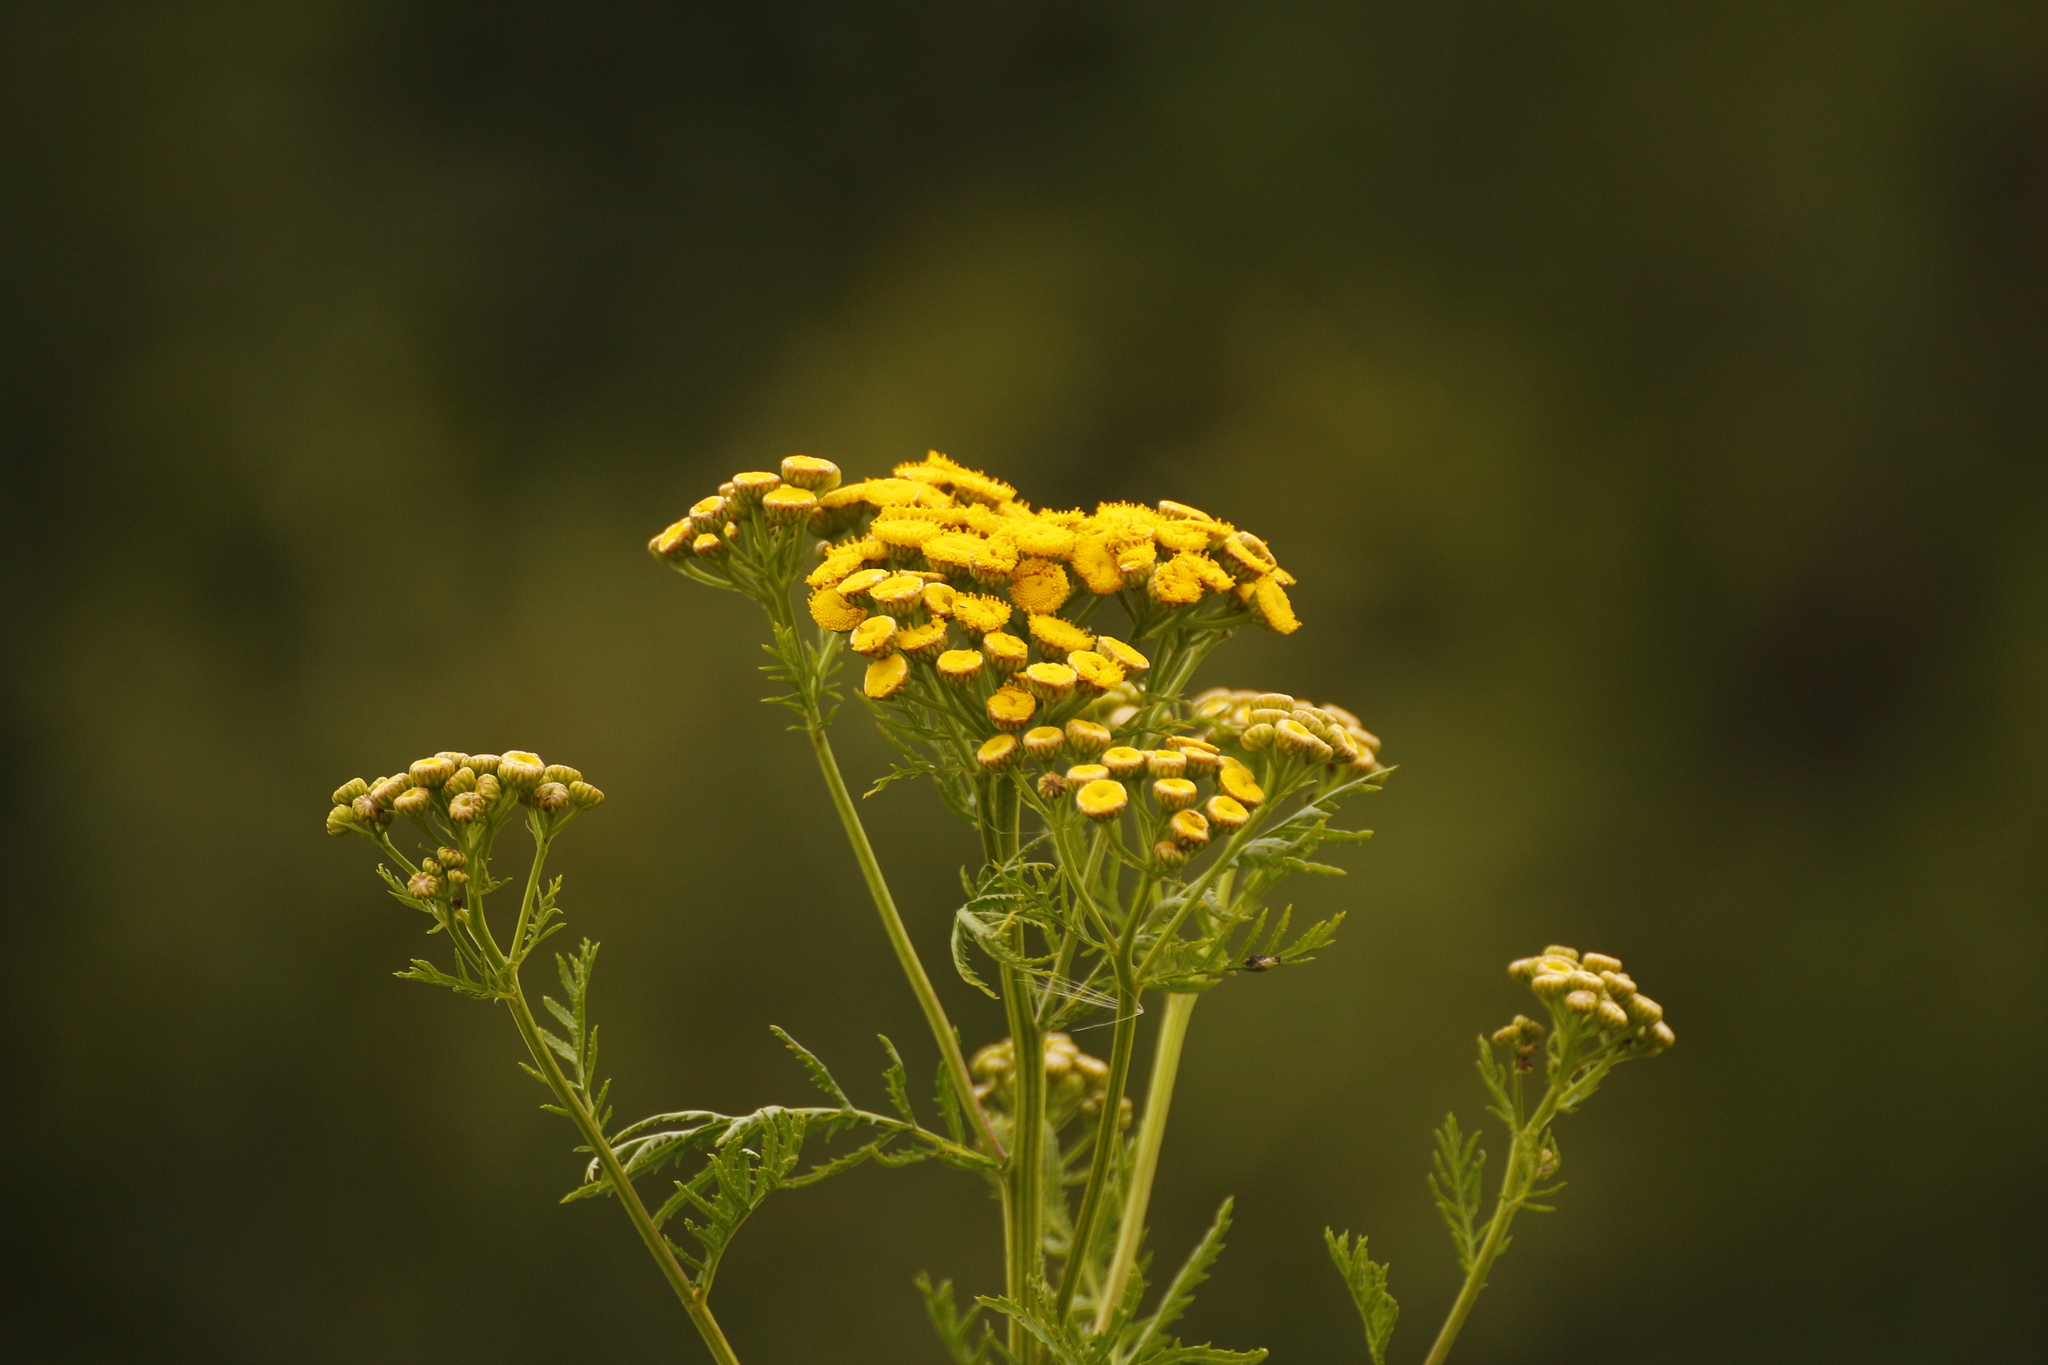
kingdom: Plantae
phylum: Tracheophyta
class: Magnoliopsida
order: Asterales
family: Asteraceae
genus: Tanacetum
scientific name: Tanacetum vulgare
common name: Common tansy
